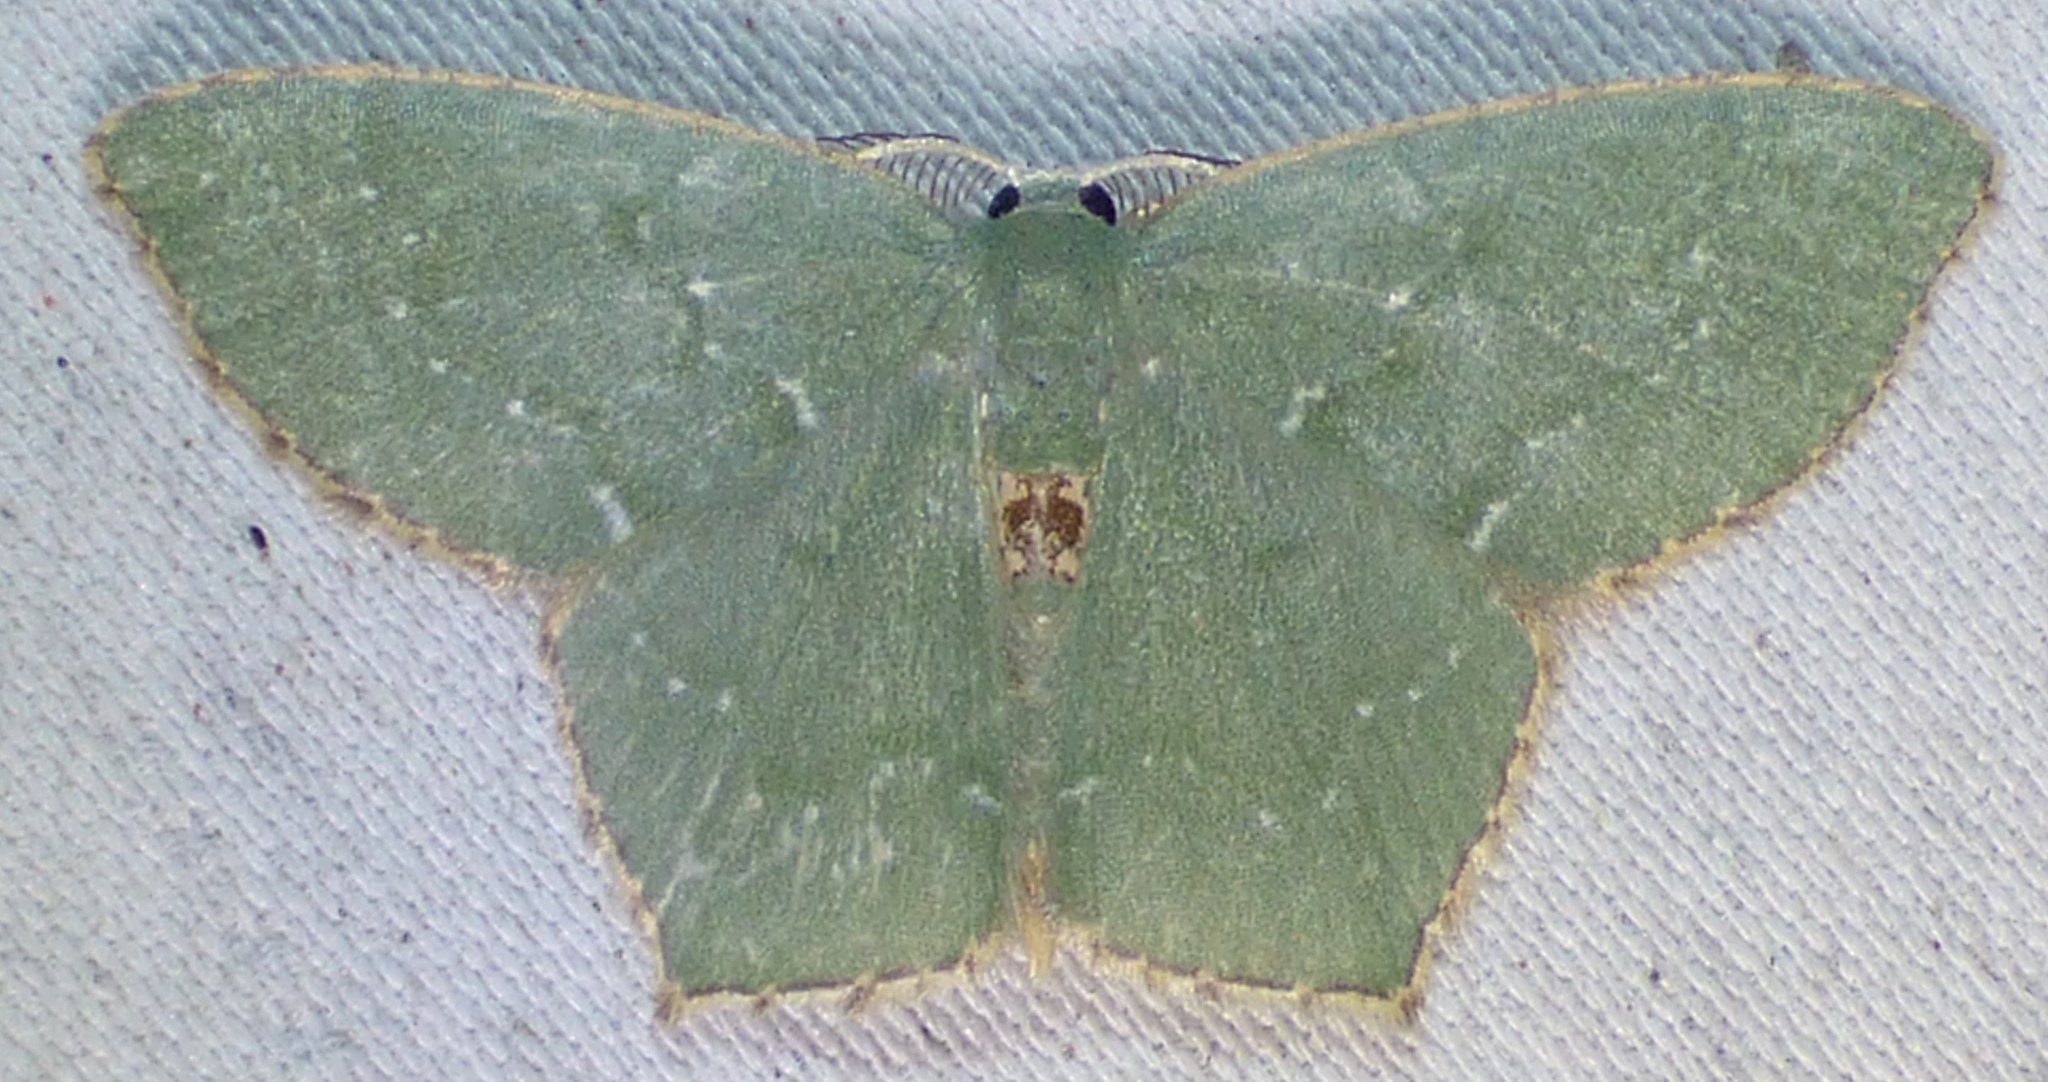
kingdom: Animalia
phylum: Arthropoda
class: Insecta
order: Lepidoptera
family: Geometridae
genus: Chloropteryx
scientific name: Chloropteryx tepperaria
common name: Angle winged emerald moth
